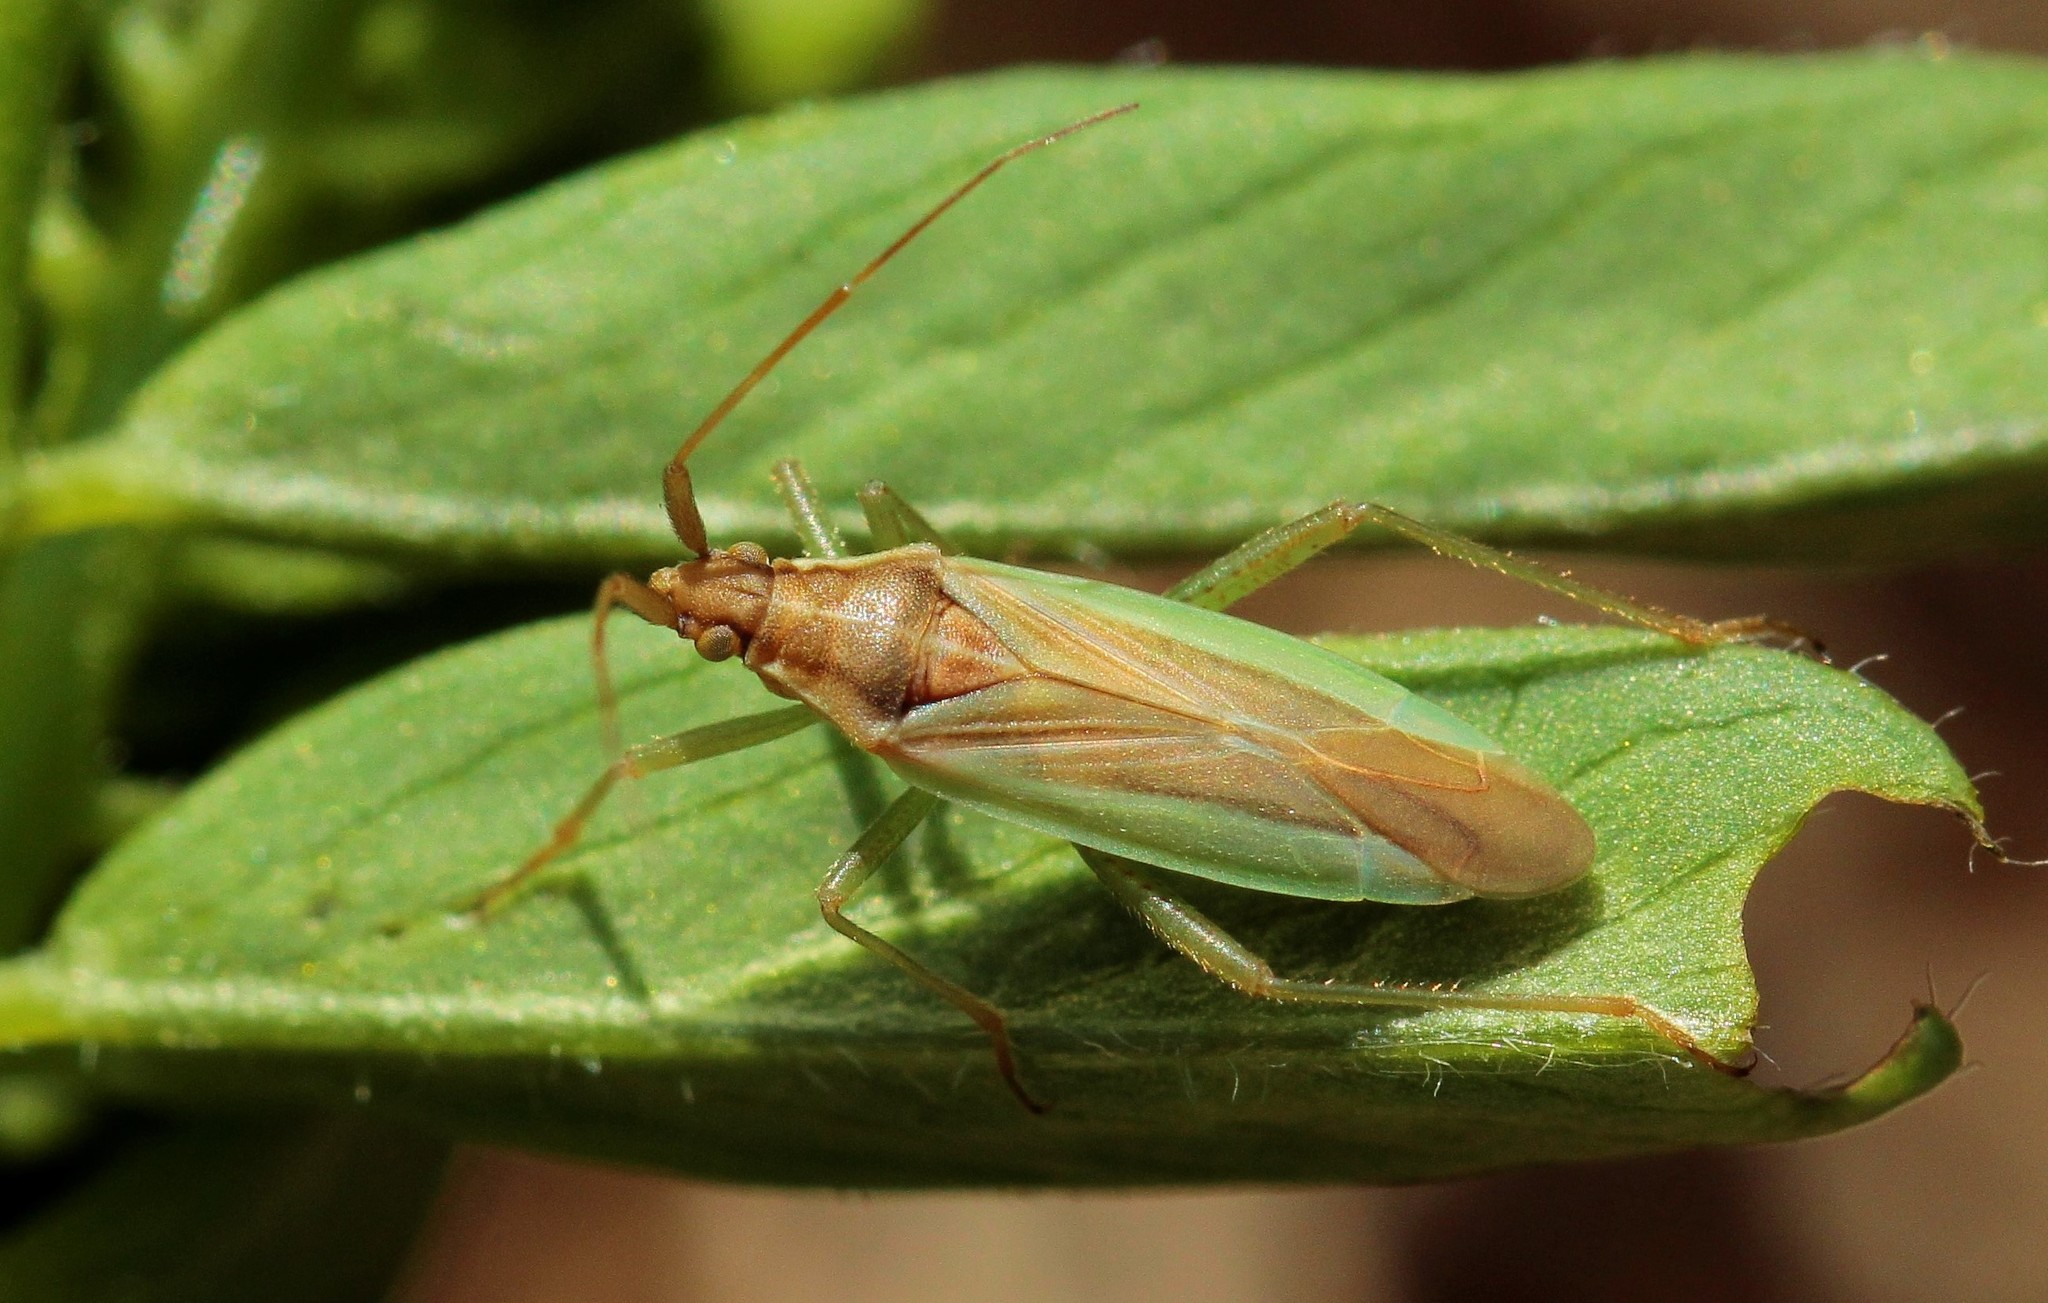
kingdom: Animalia
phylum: Arthropoda
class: Insecta
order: Hemiptera
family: Miridae
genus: Stenodema
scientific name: Stenodema laevigata
